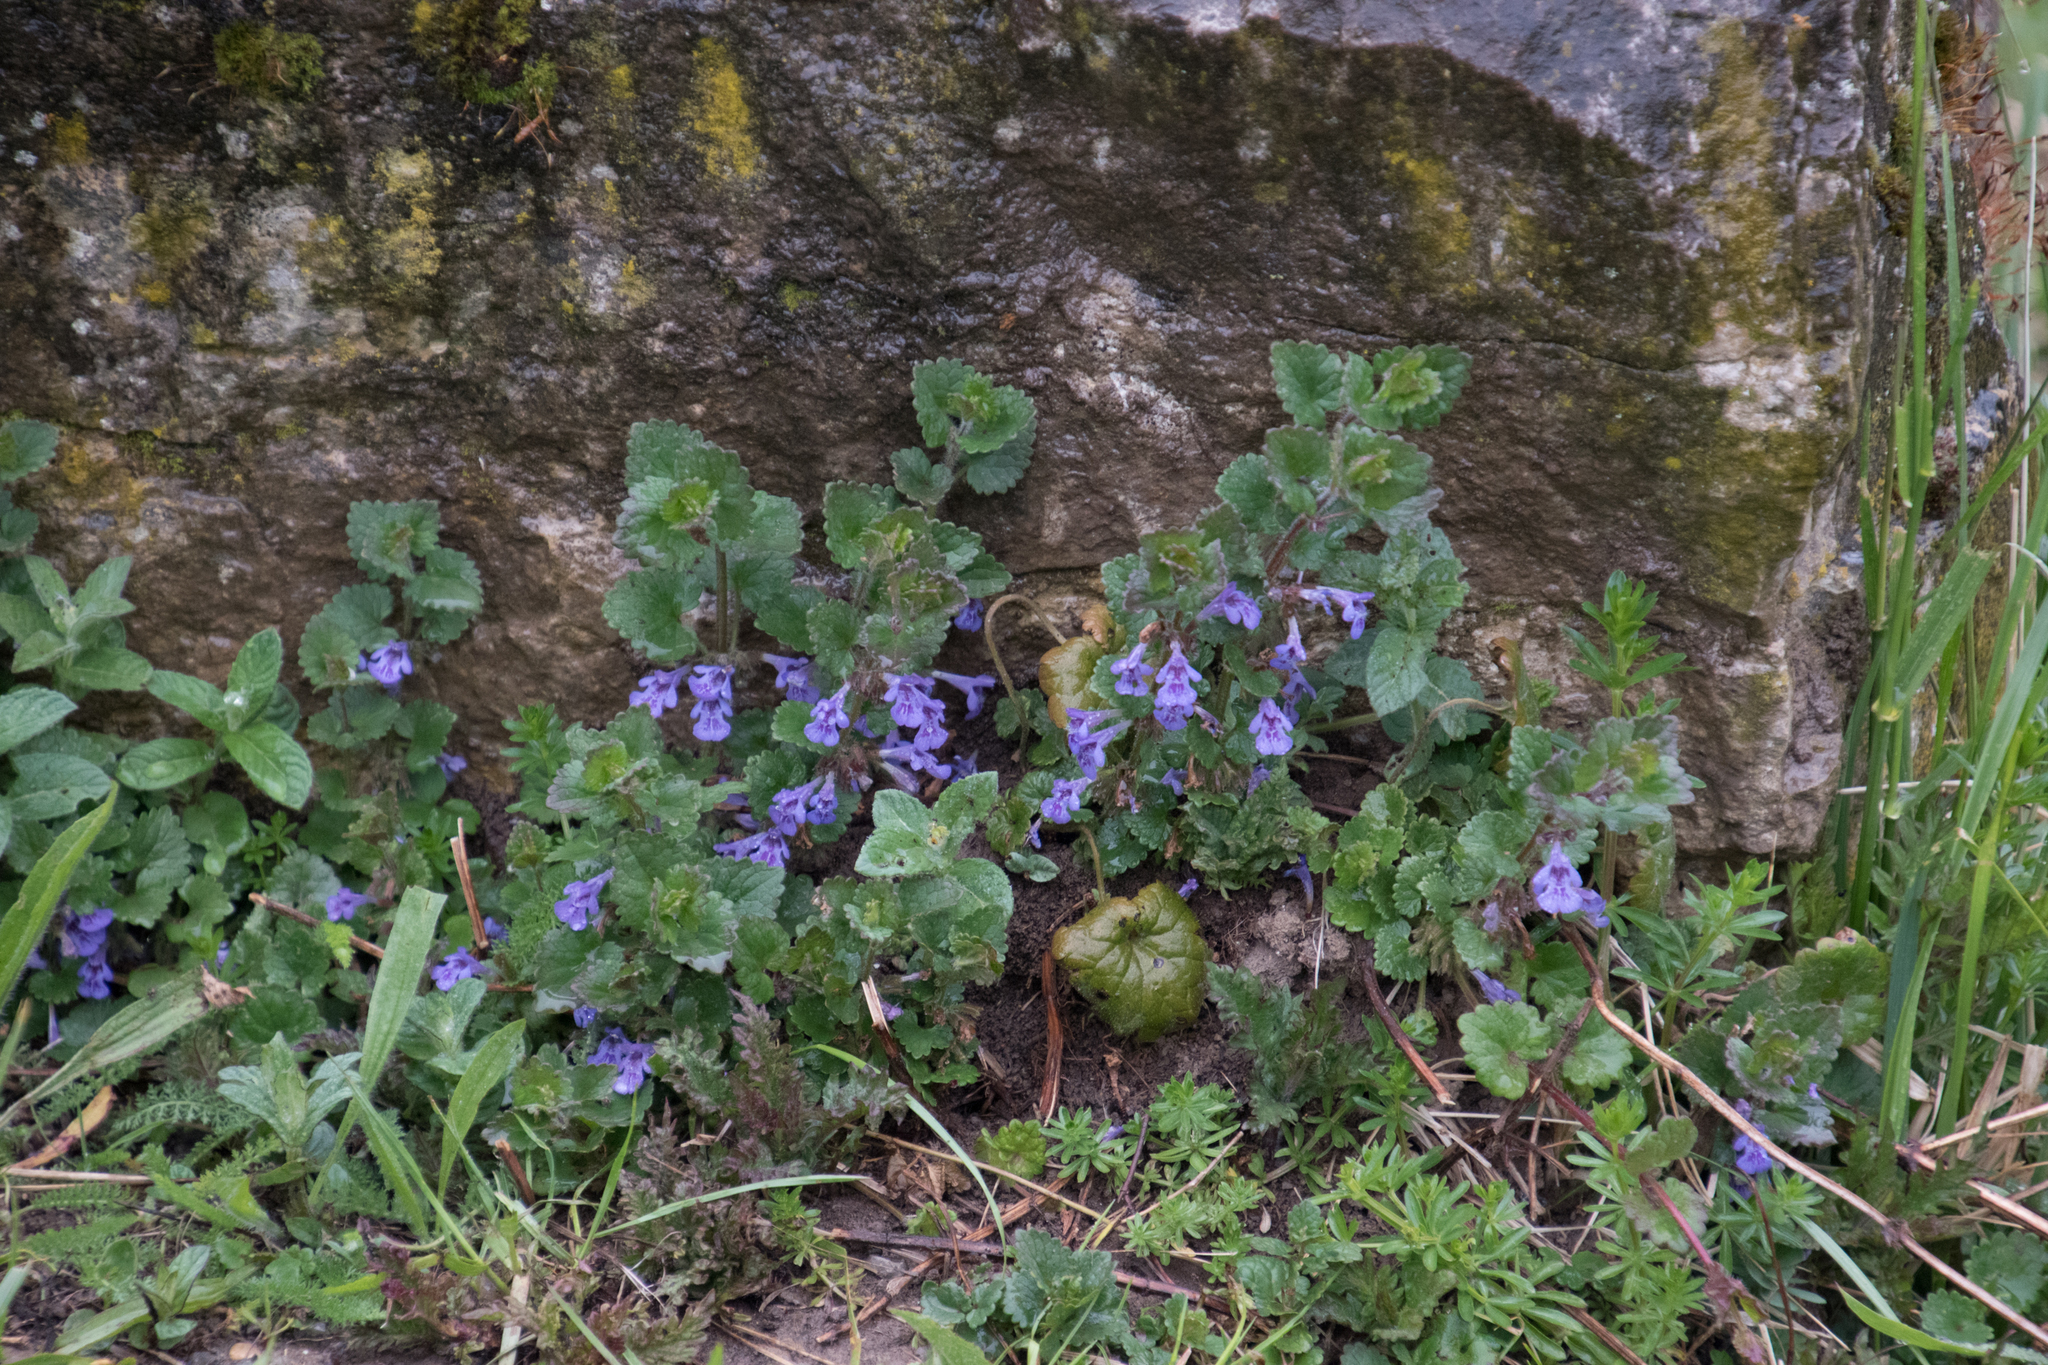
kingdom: Plantae
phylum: Tracheophyta
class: Magnoliopsida
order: Lamiales
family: Lamiaceae
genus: Glechoma
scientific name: Glechoma hederacea
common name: Ground ivy
